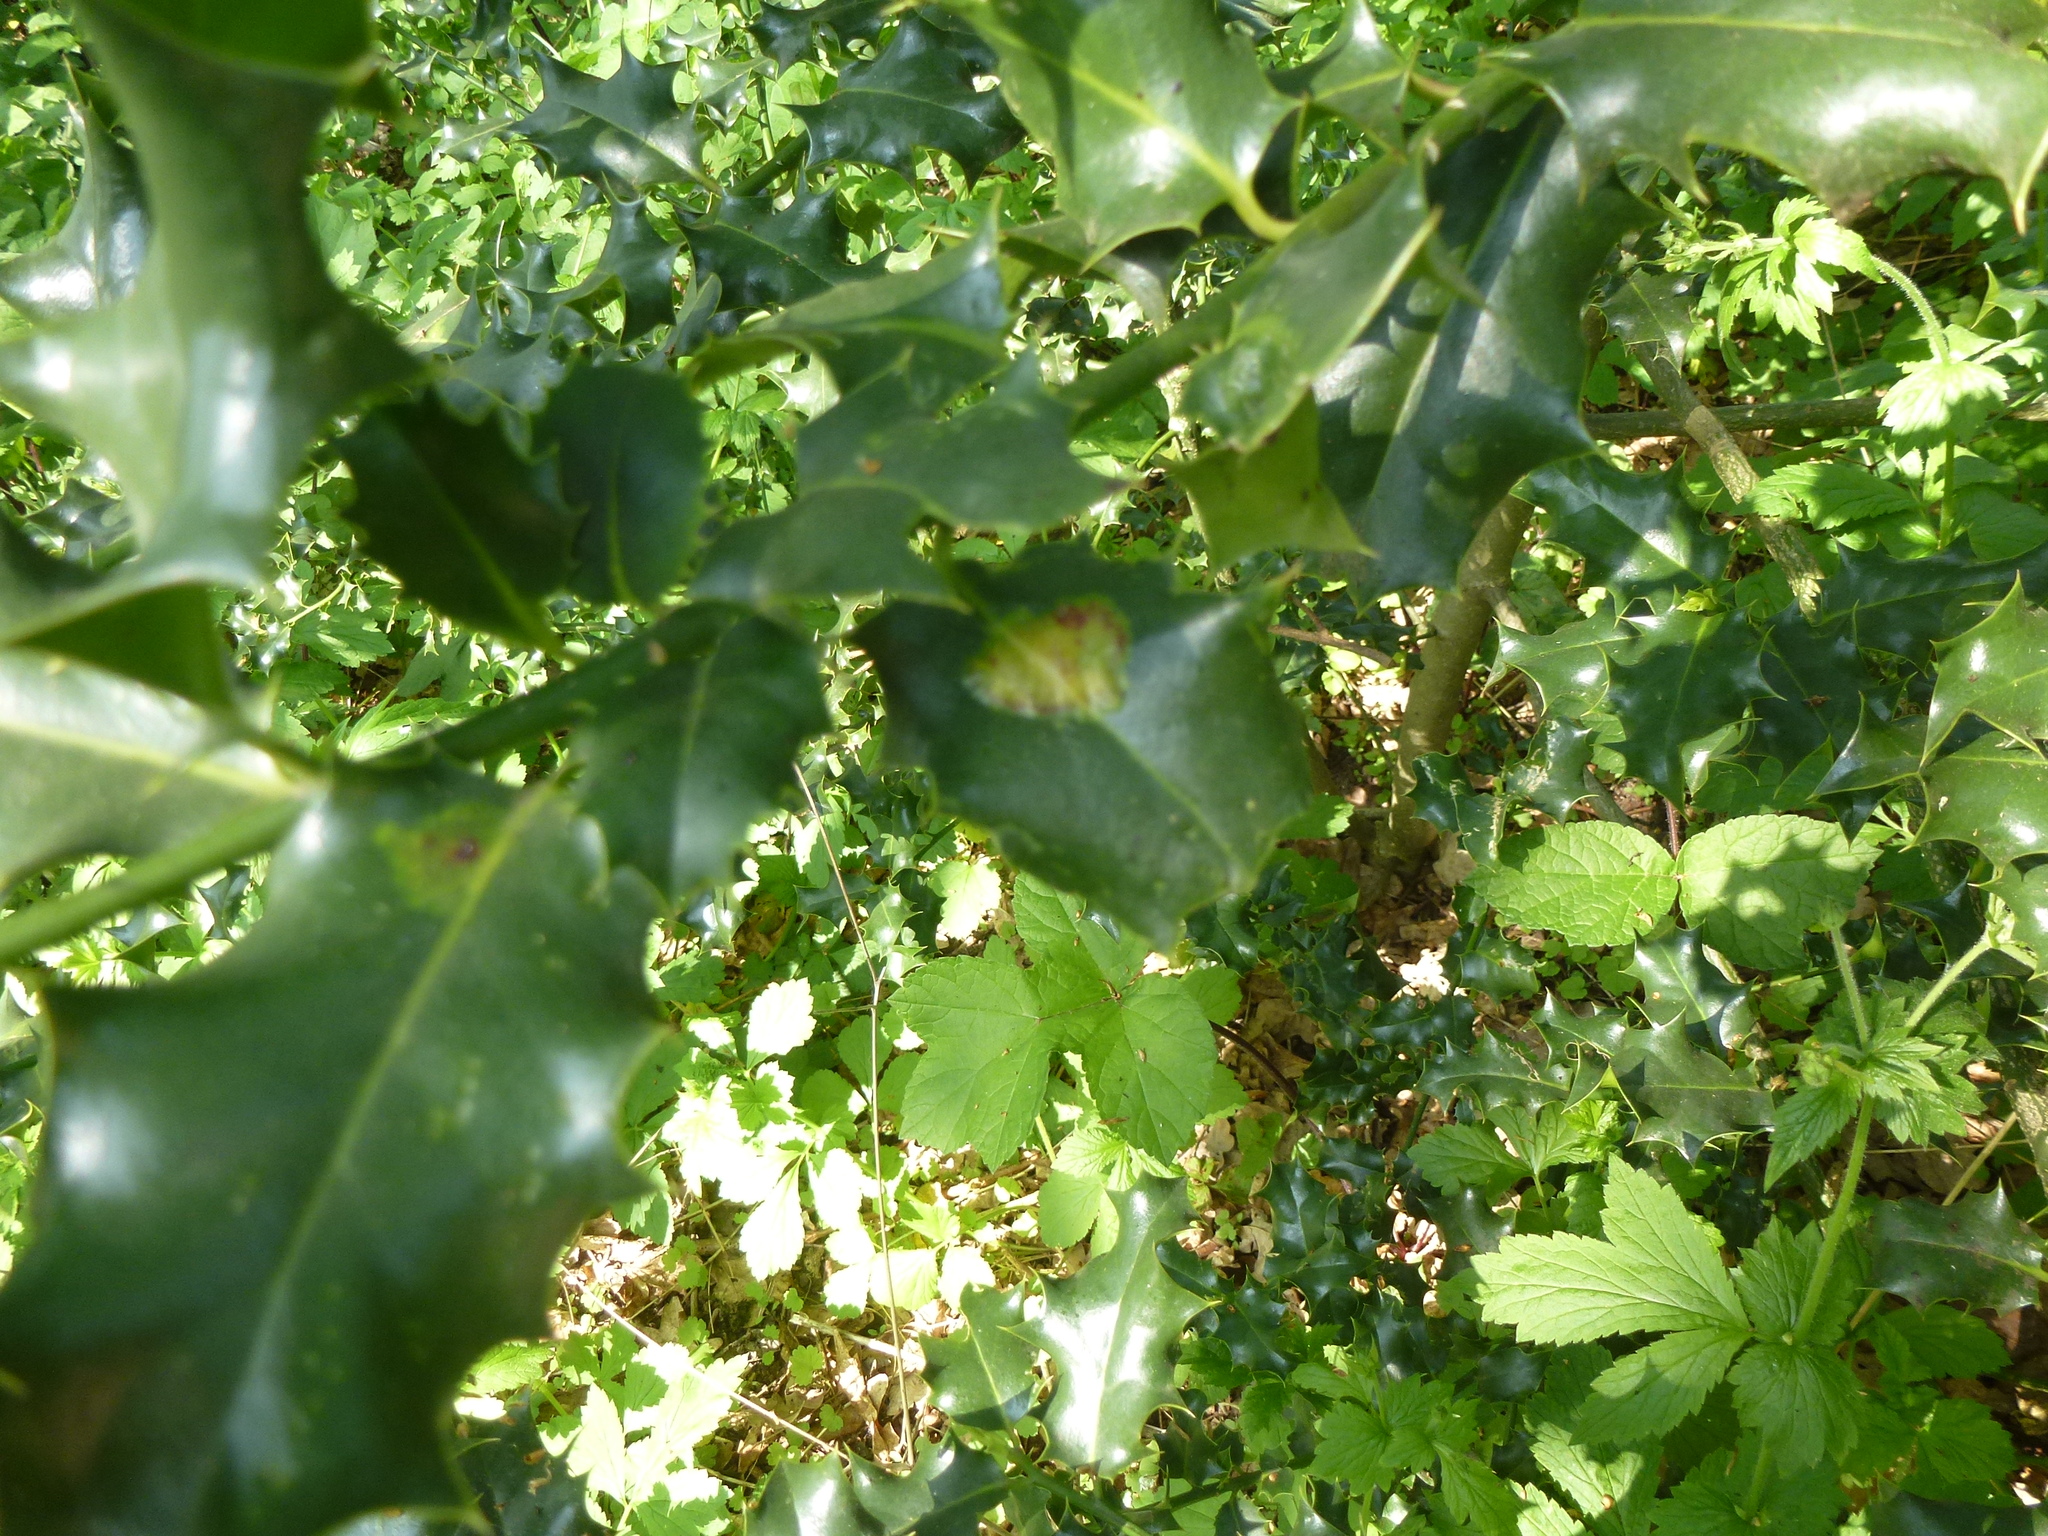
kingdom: Animalia
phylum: Arthropoda
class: Insecta
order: Diptera
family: Agromyzidae
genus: Phytomyza
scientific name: Phytomyza ilicis
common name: Holly leafminer
